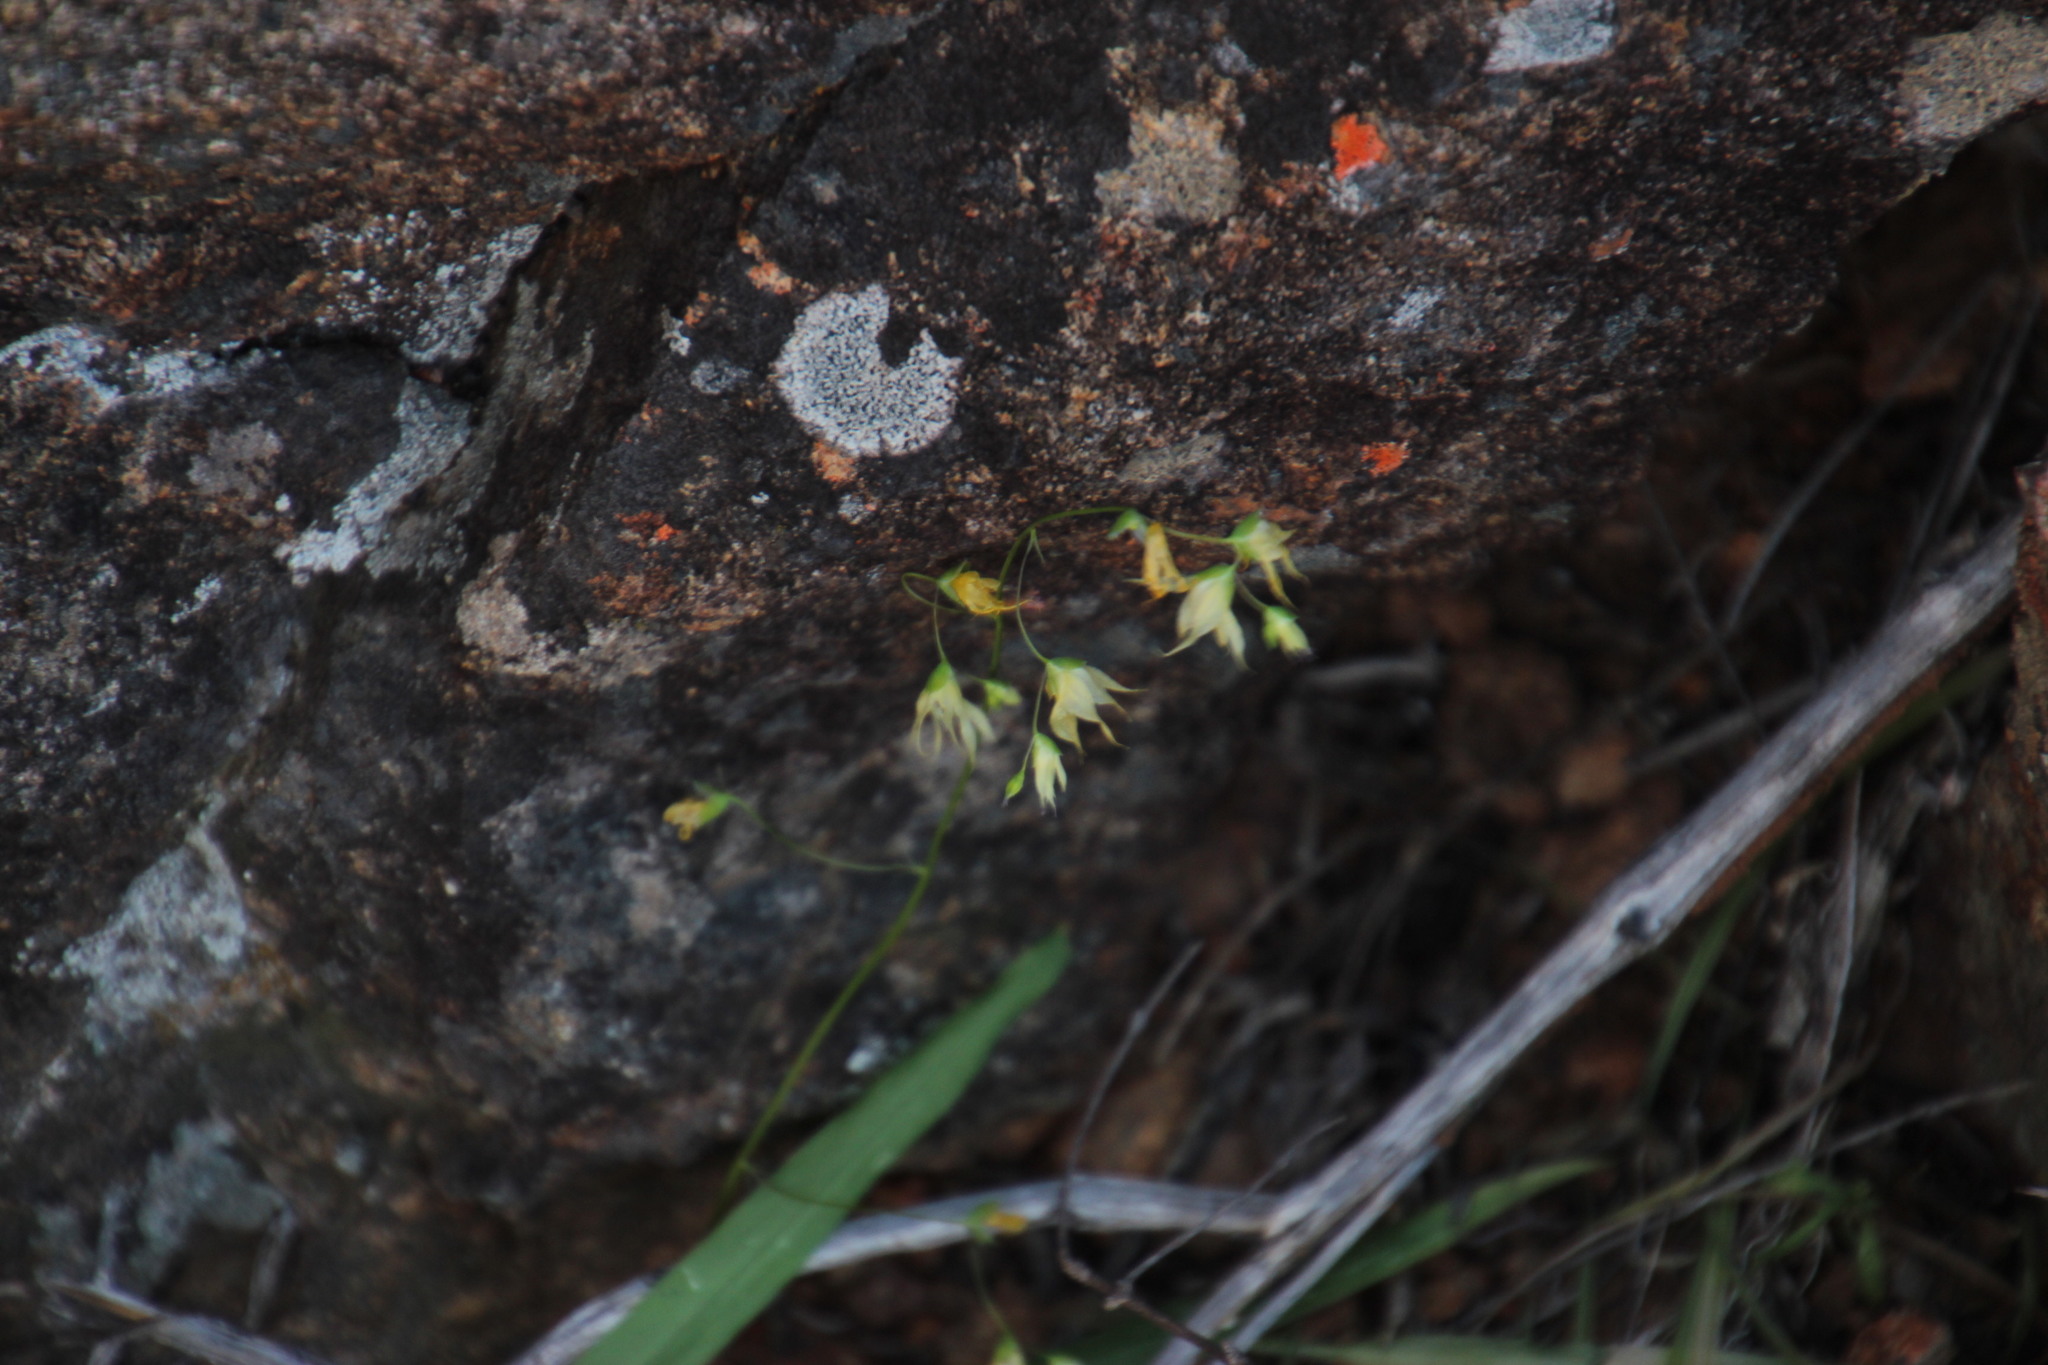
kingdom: Plantae
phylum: Tracheophyta
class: Liliopsida
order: Asparagales
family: Iridaceae
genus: Melasphaerula
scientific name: Melasphaerula graminea
